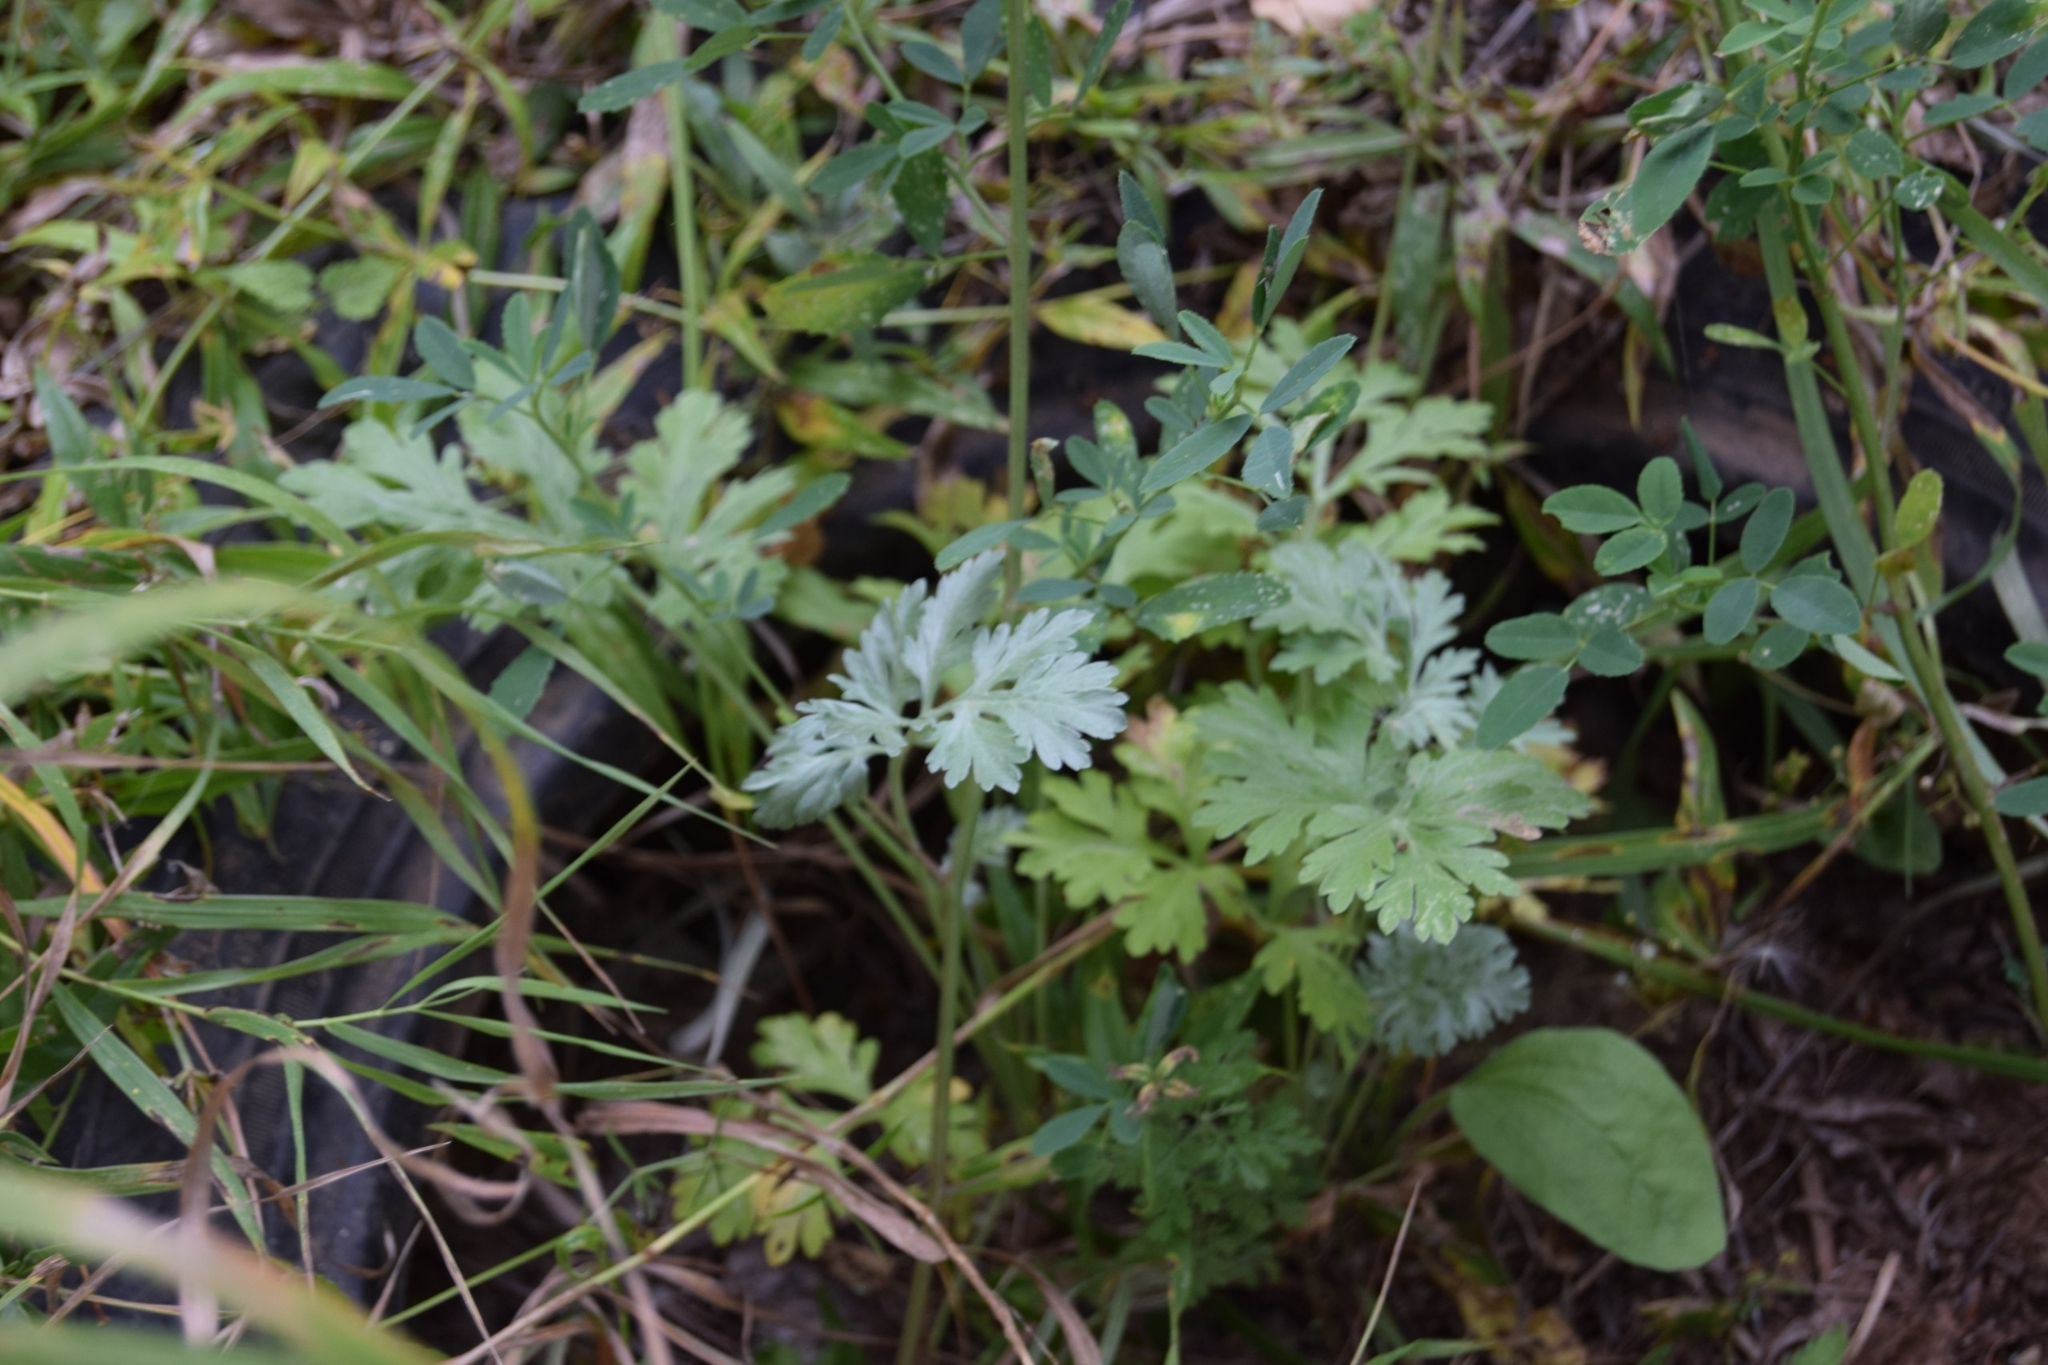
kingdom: Plantae
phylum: Tracheophyta
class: Magnoliopsida
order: Asterales
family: Asteraceae
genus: Artemisia
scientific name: Artemisia absinthium
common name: Wormwood
